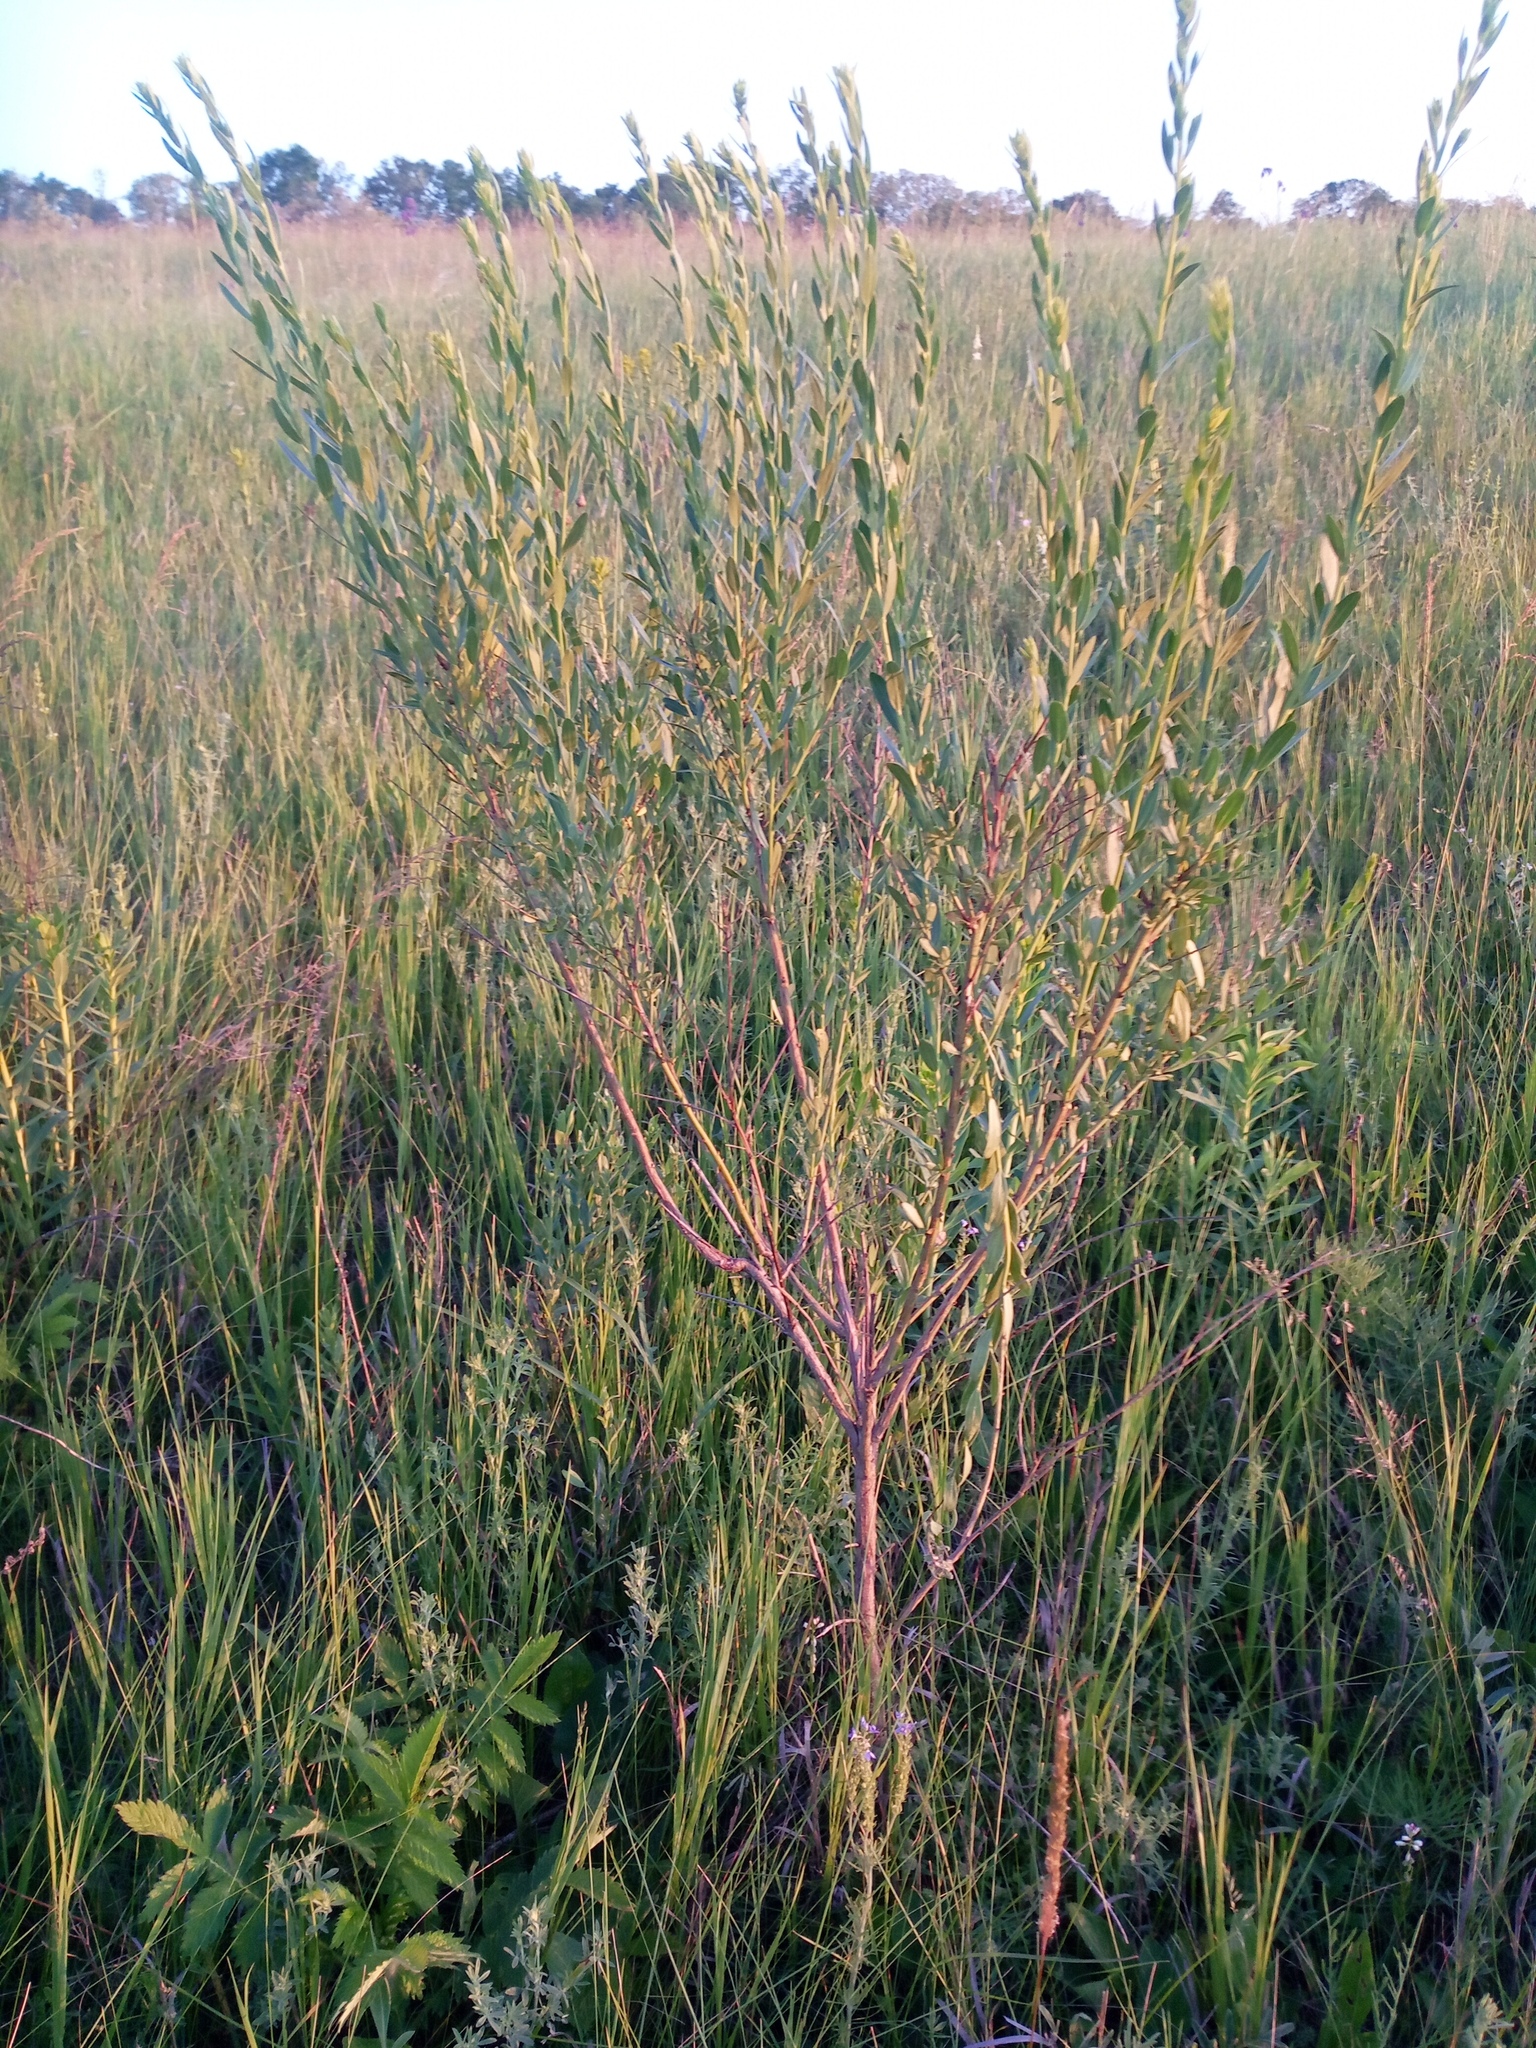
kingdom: Plantae
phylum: Tracheophyta
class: Magnoliopsida
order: Fabales
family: Fabaceae
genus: Genista
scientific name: Genista tinctoria
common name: Dyer's greenweed
